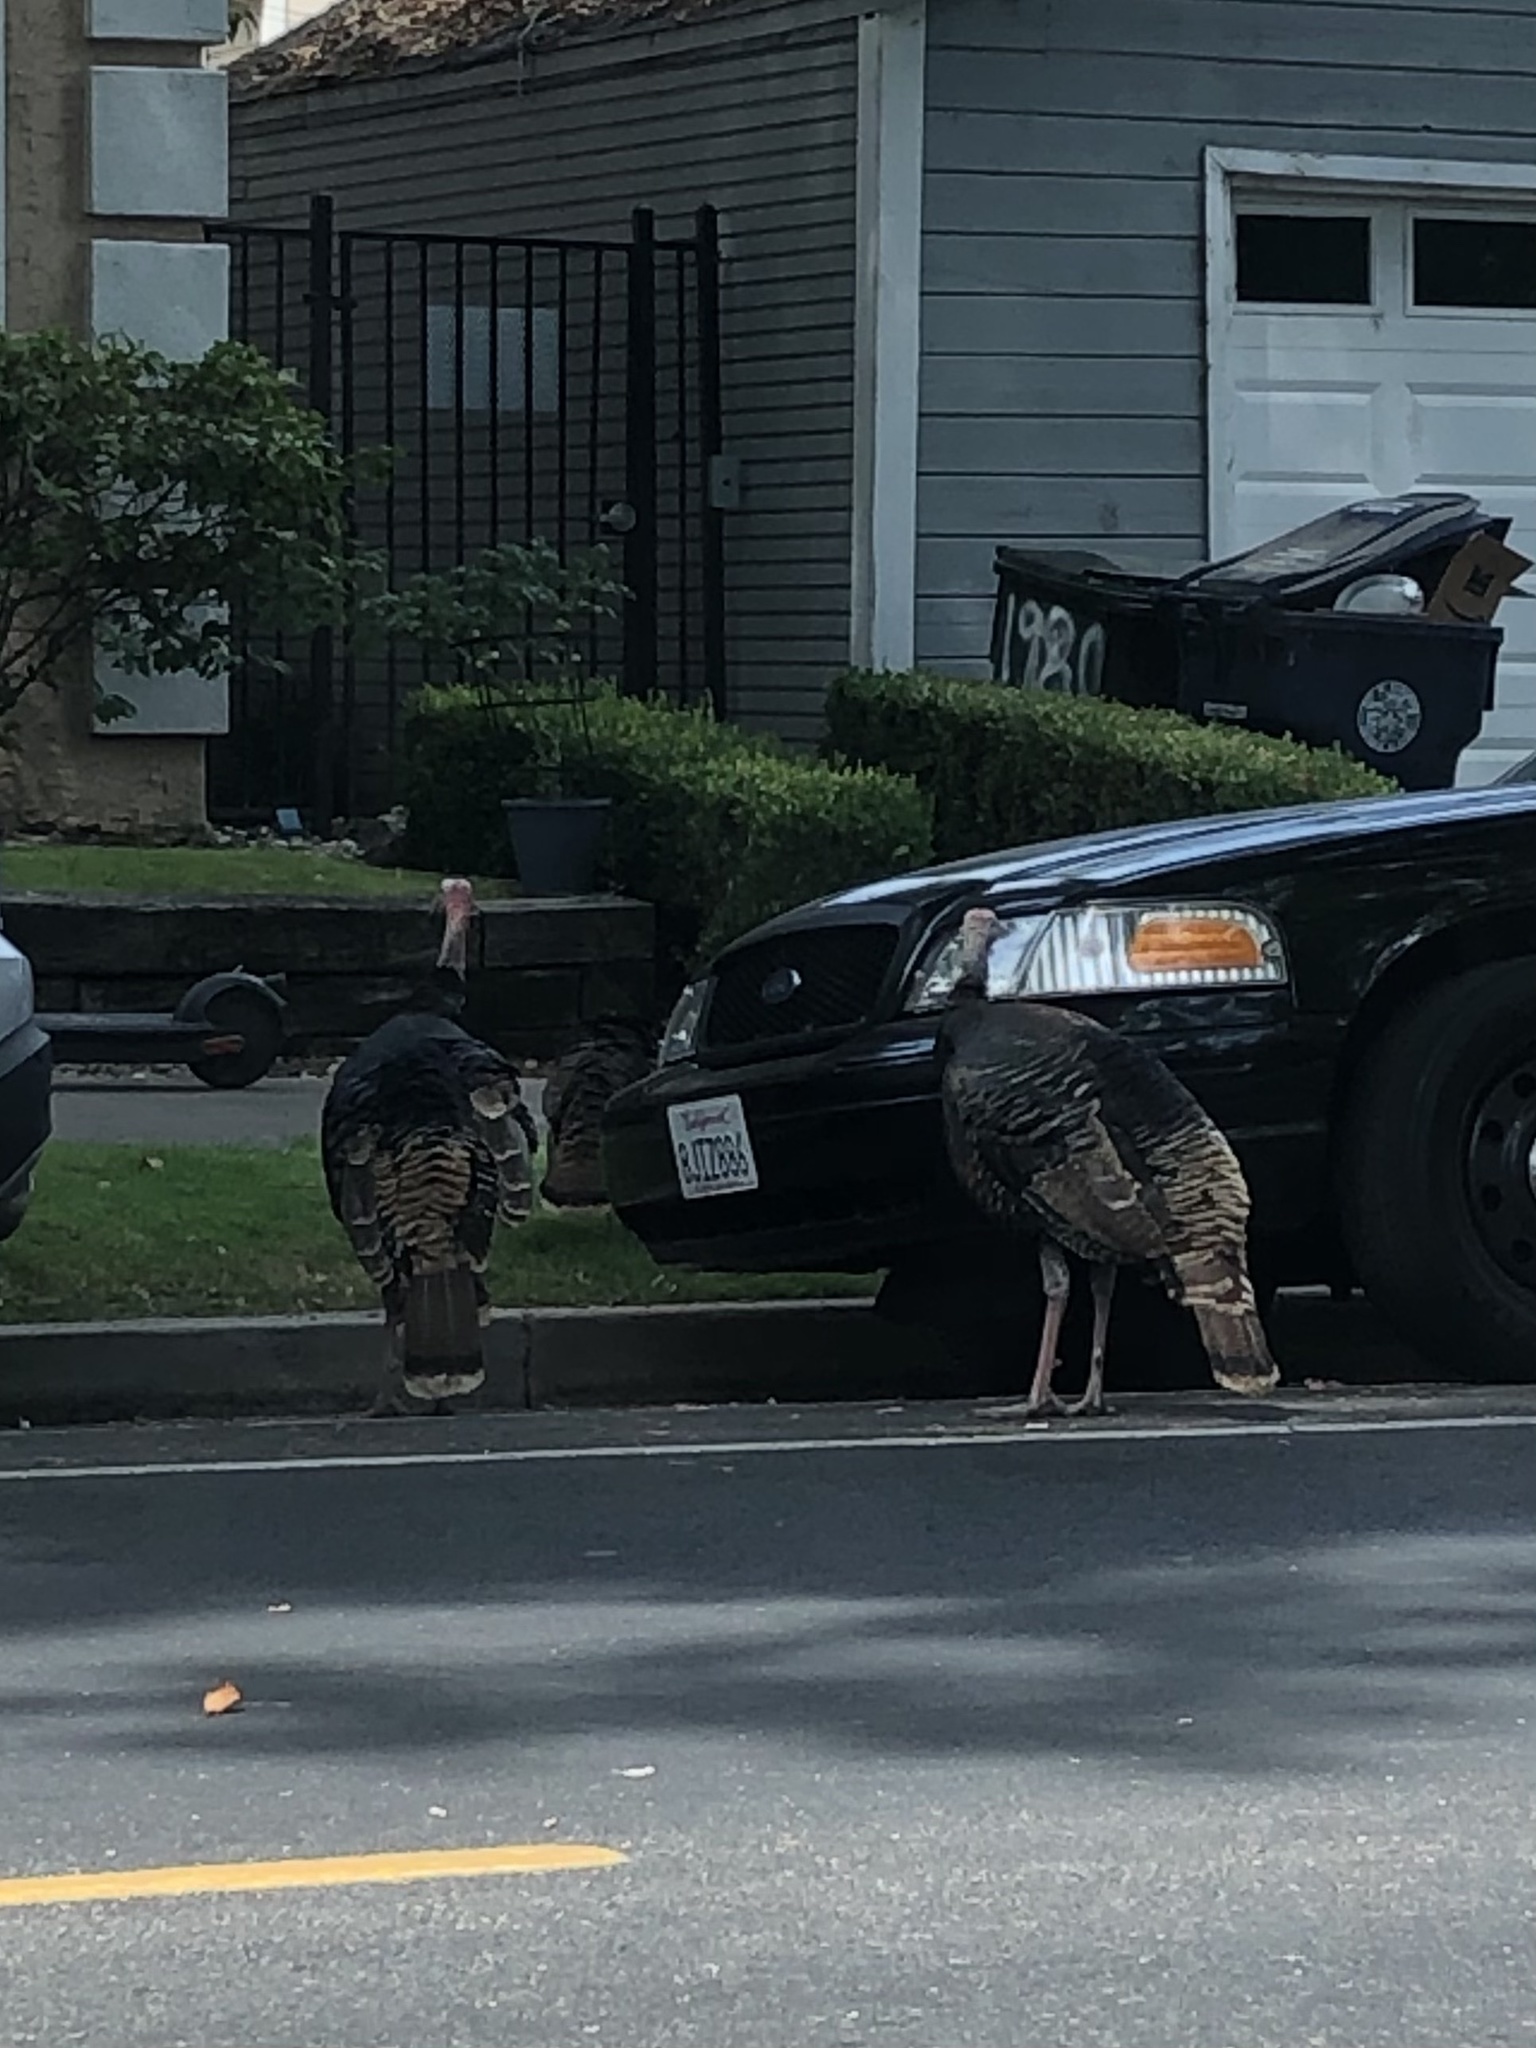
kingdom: Animalia
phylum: Chordata
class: Aves
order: Galliformes
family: Phasianidae
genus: Meleagris
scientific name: Meleagris gallopavo
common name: Wild turkey
